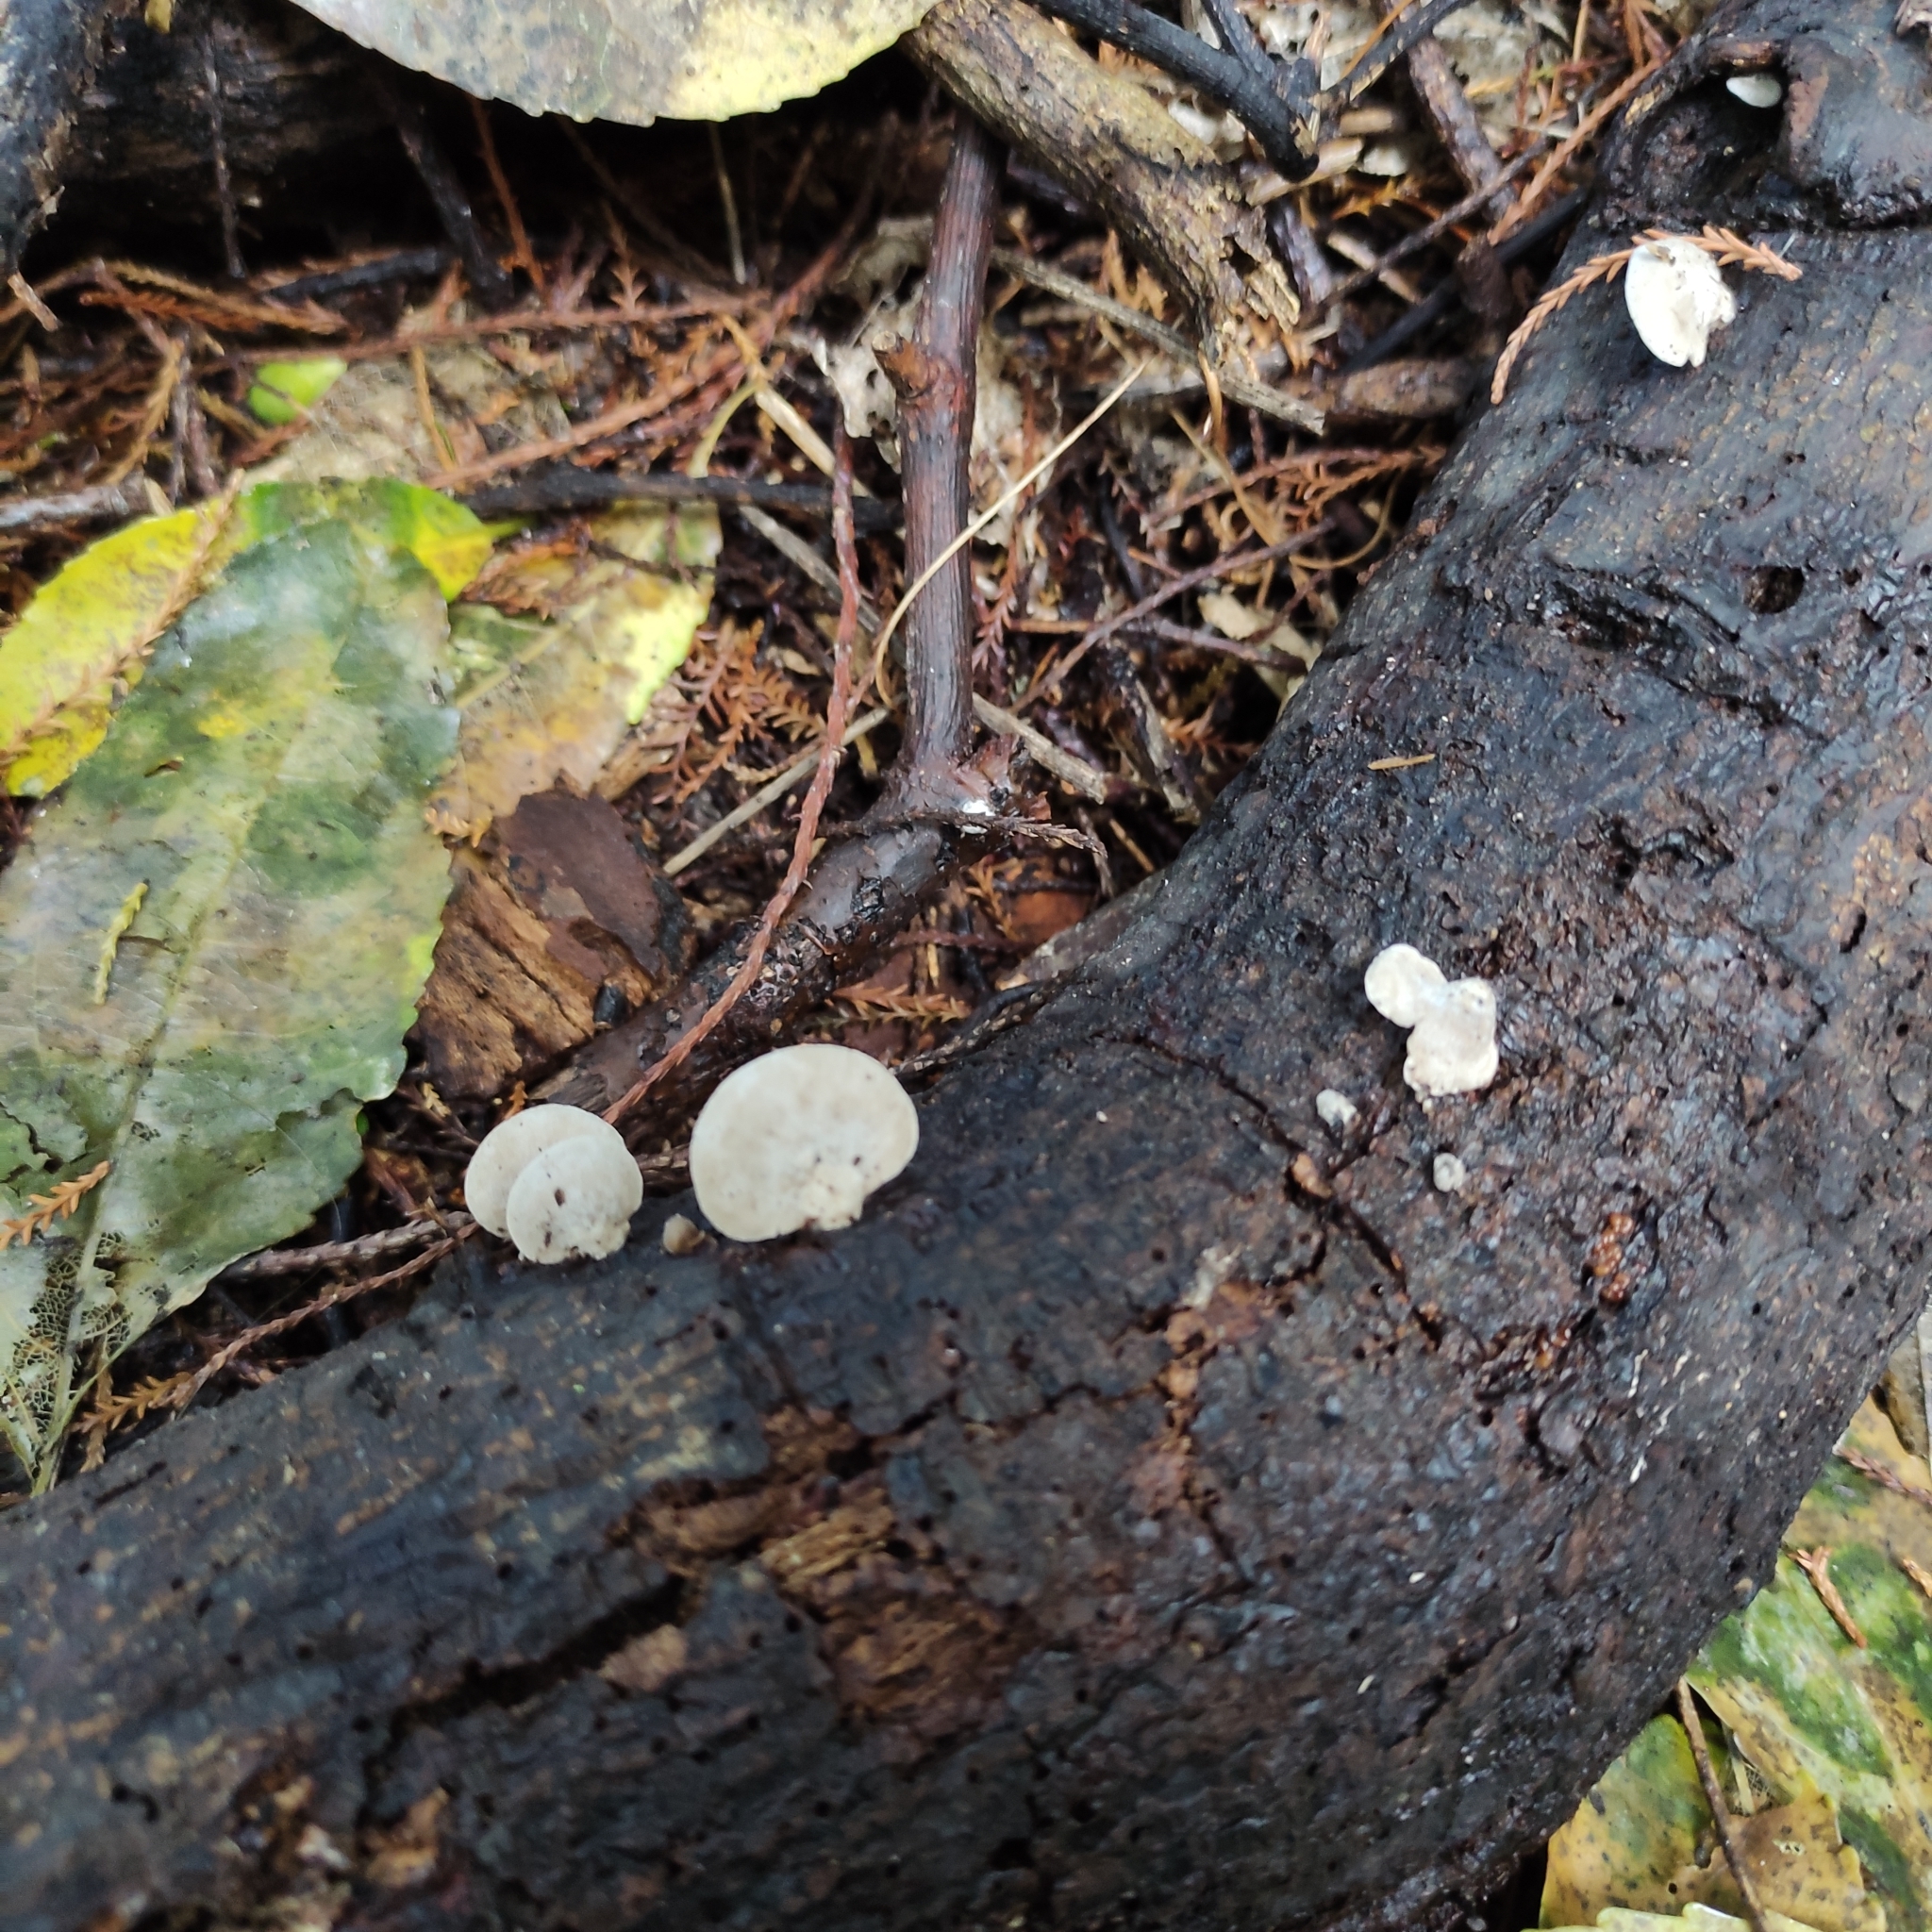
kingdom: Fungi
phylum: Basidiomycota
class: Agaricomycetes
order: Agaricales
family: Tricholomataceae
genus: Conchomyces
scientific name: Conchomyces bursiformis
